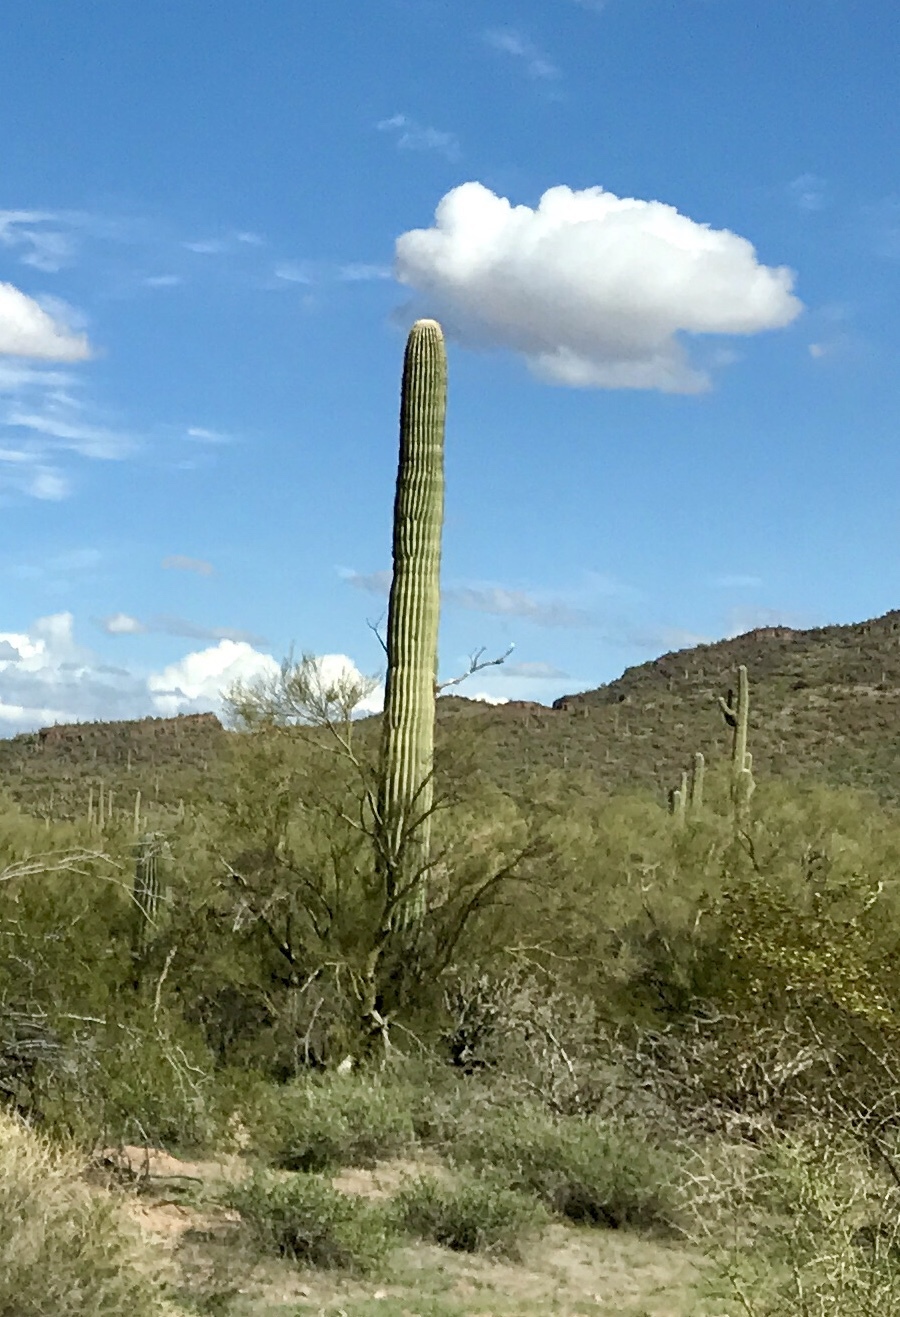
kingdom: Plantae
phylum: Tracheophyta
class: Magnoliopsida
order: Caryophyllales
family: Cactaceae
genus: Carnegiea
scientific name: Carnegiea gigantea
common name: Saguaro
